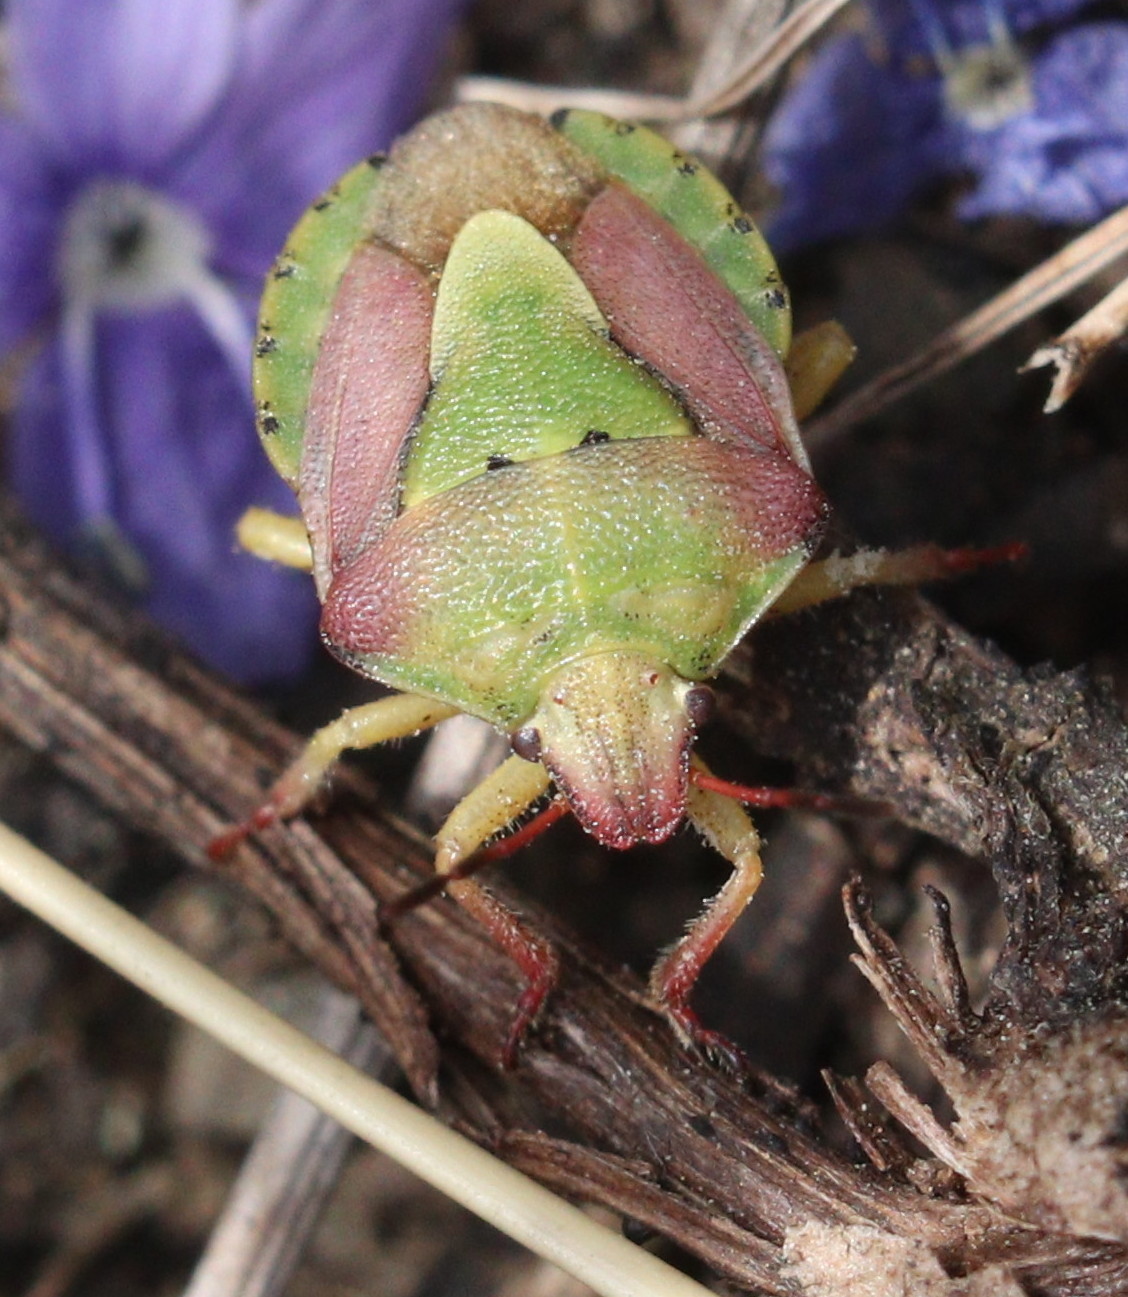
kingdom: Animalia
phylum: Arthropoda
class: Insecta
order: Hemiptera
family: Pentatomidae
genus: Antheminia
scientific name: Antheminia lunulata
